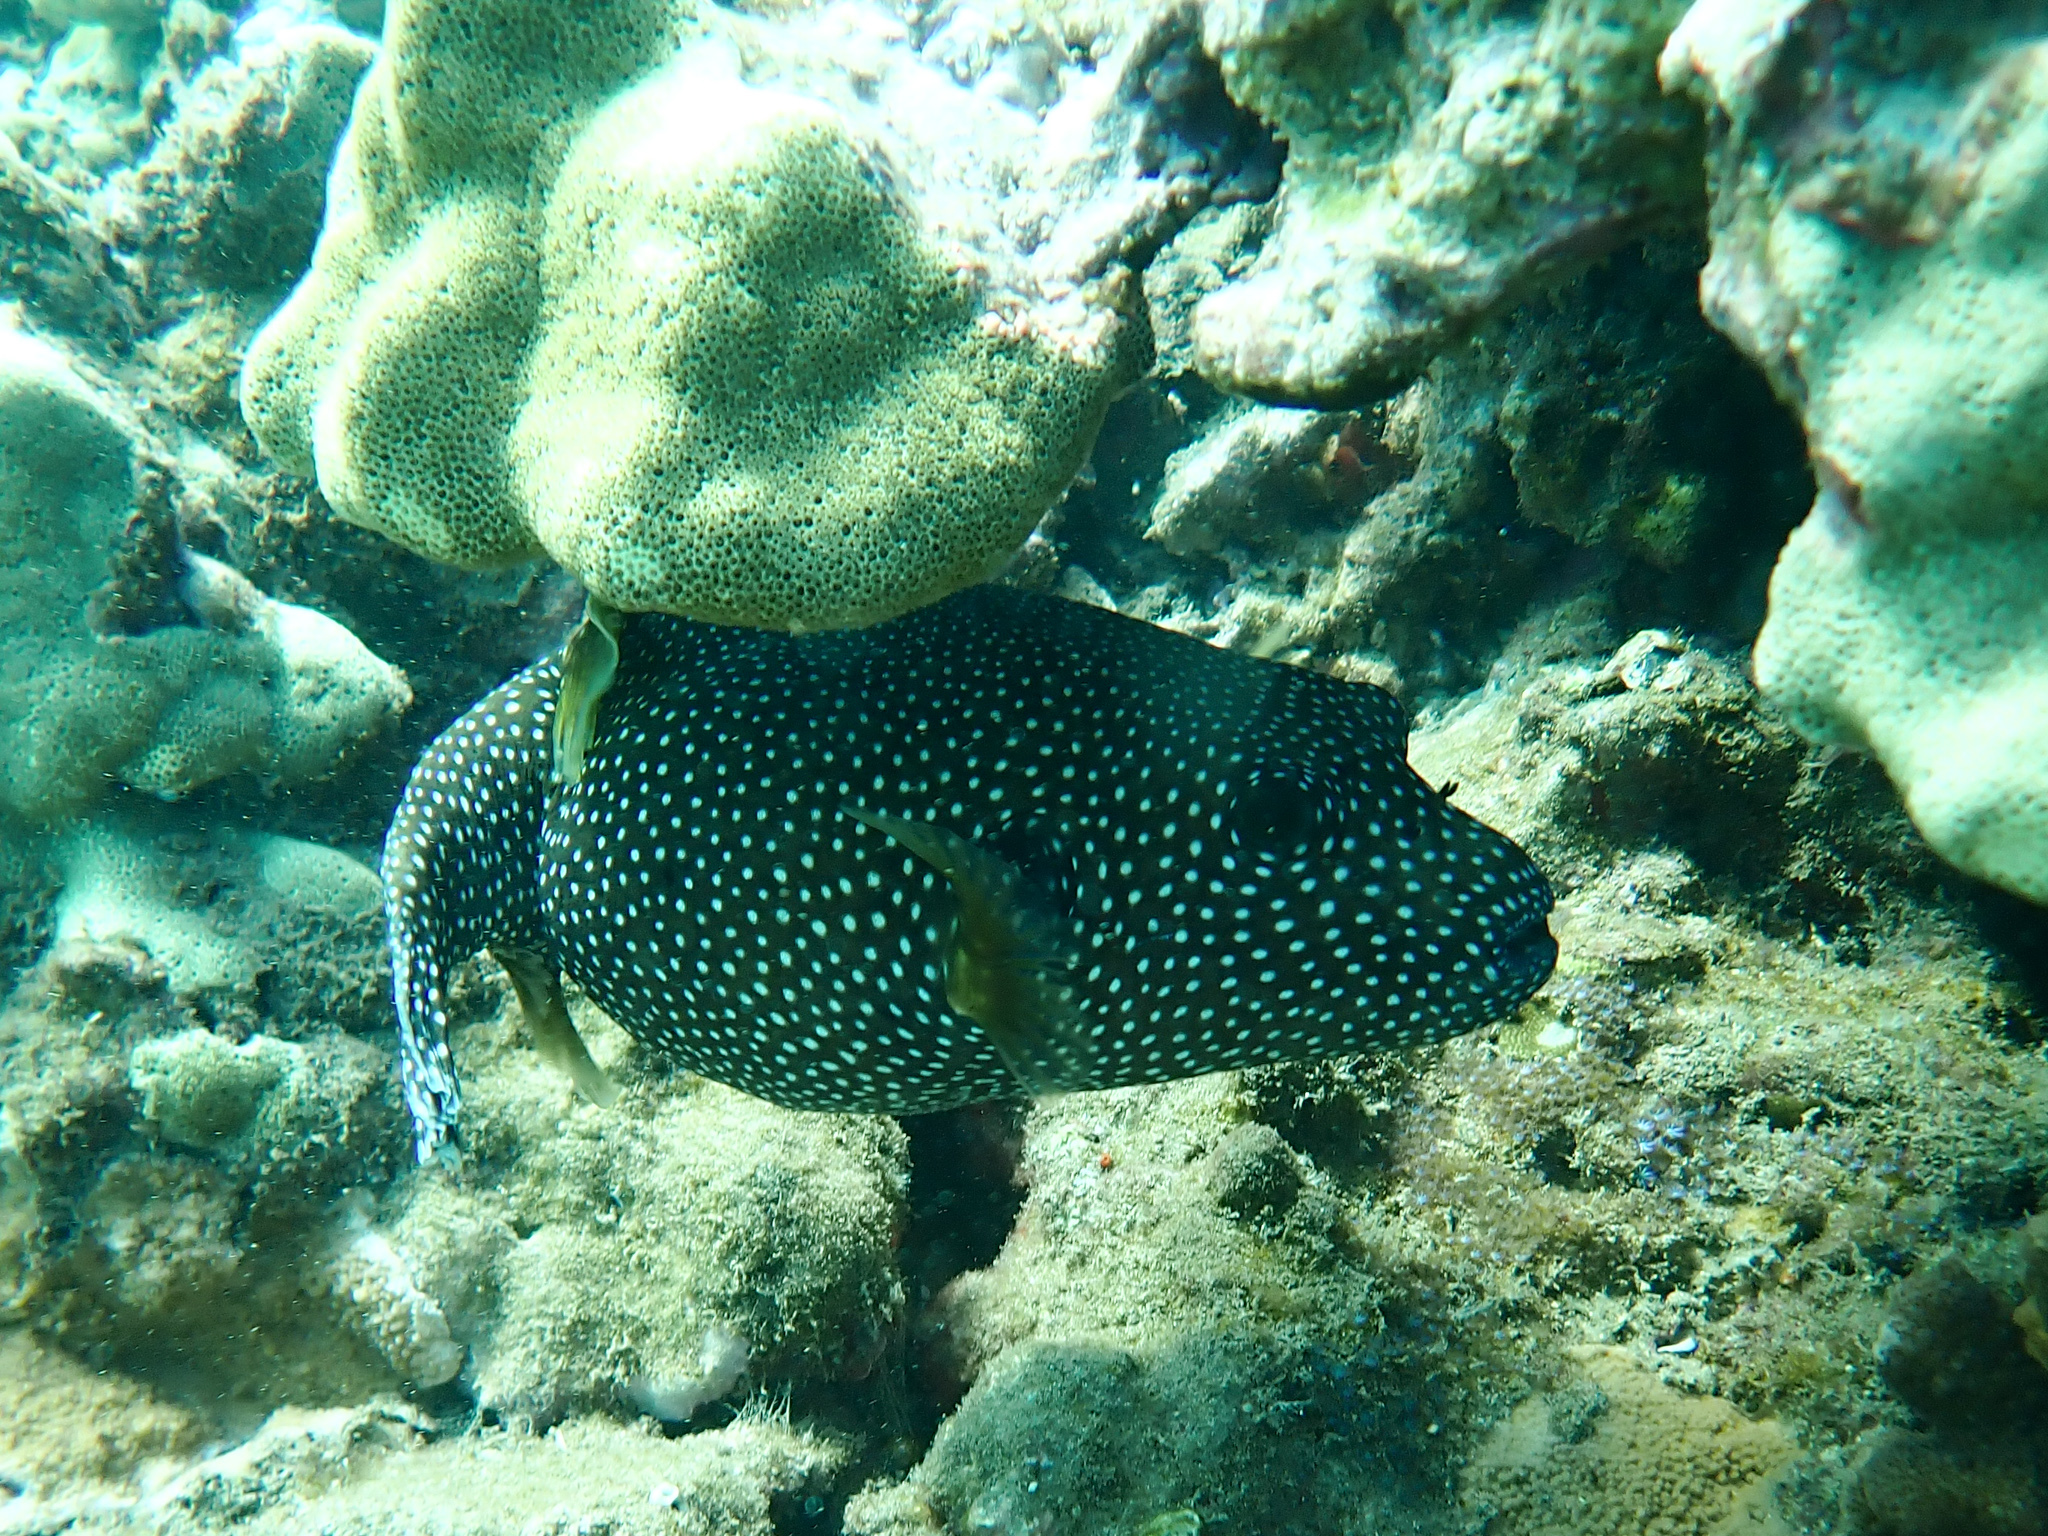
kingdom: Animalia
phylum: Chordata
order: Tetraodontiformes
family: Tetraodontidae
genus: Arothron
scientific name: Arothron meleagris
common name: Guinea-fowl pufferfish
